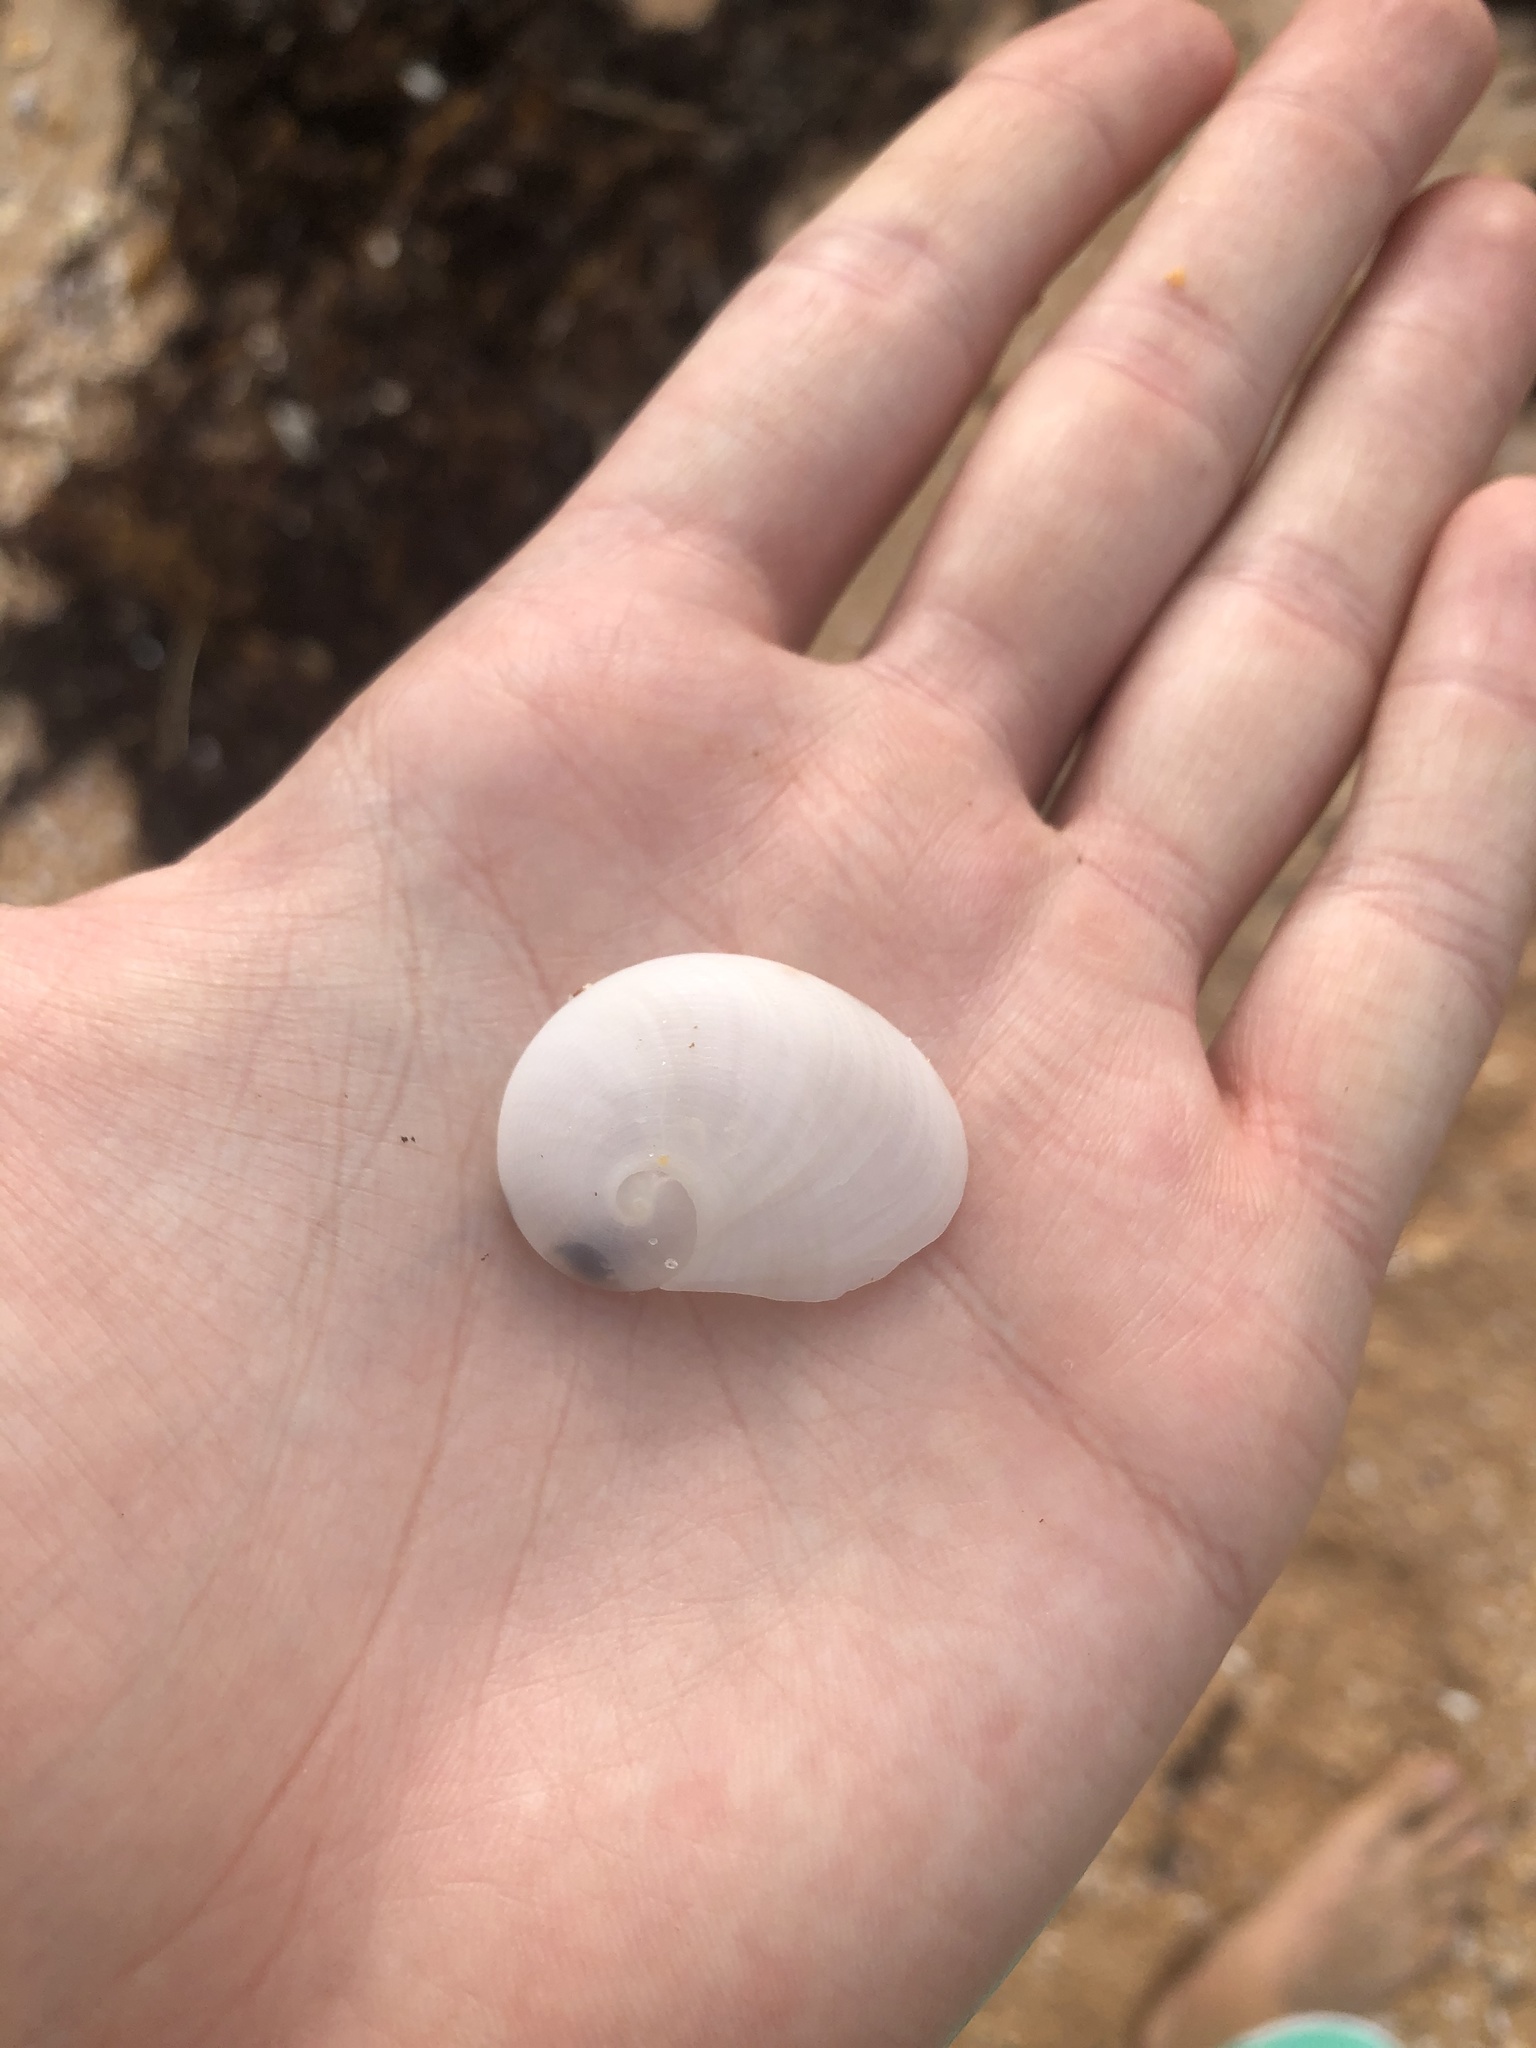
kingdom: Animalia
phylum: Mollusca
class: Gastropoda
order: Littorinimorpha
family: Naticidae
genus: Sinum
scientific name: Sinum perspectivum
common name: White baby ear
